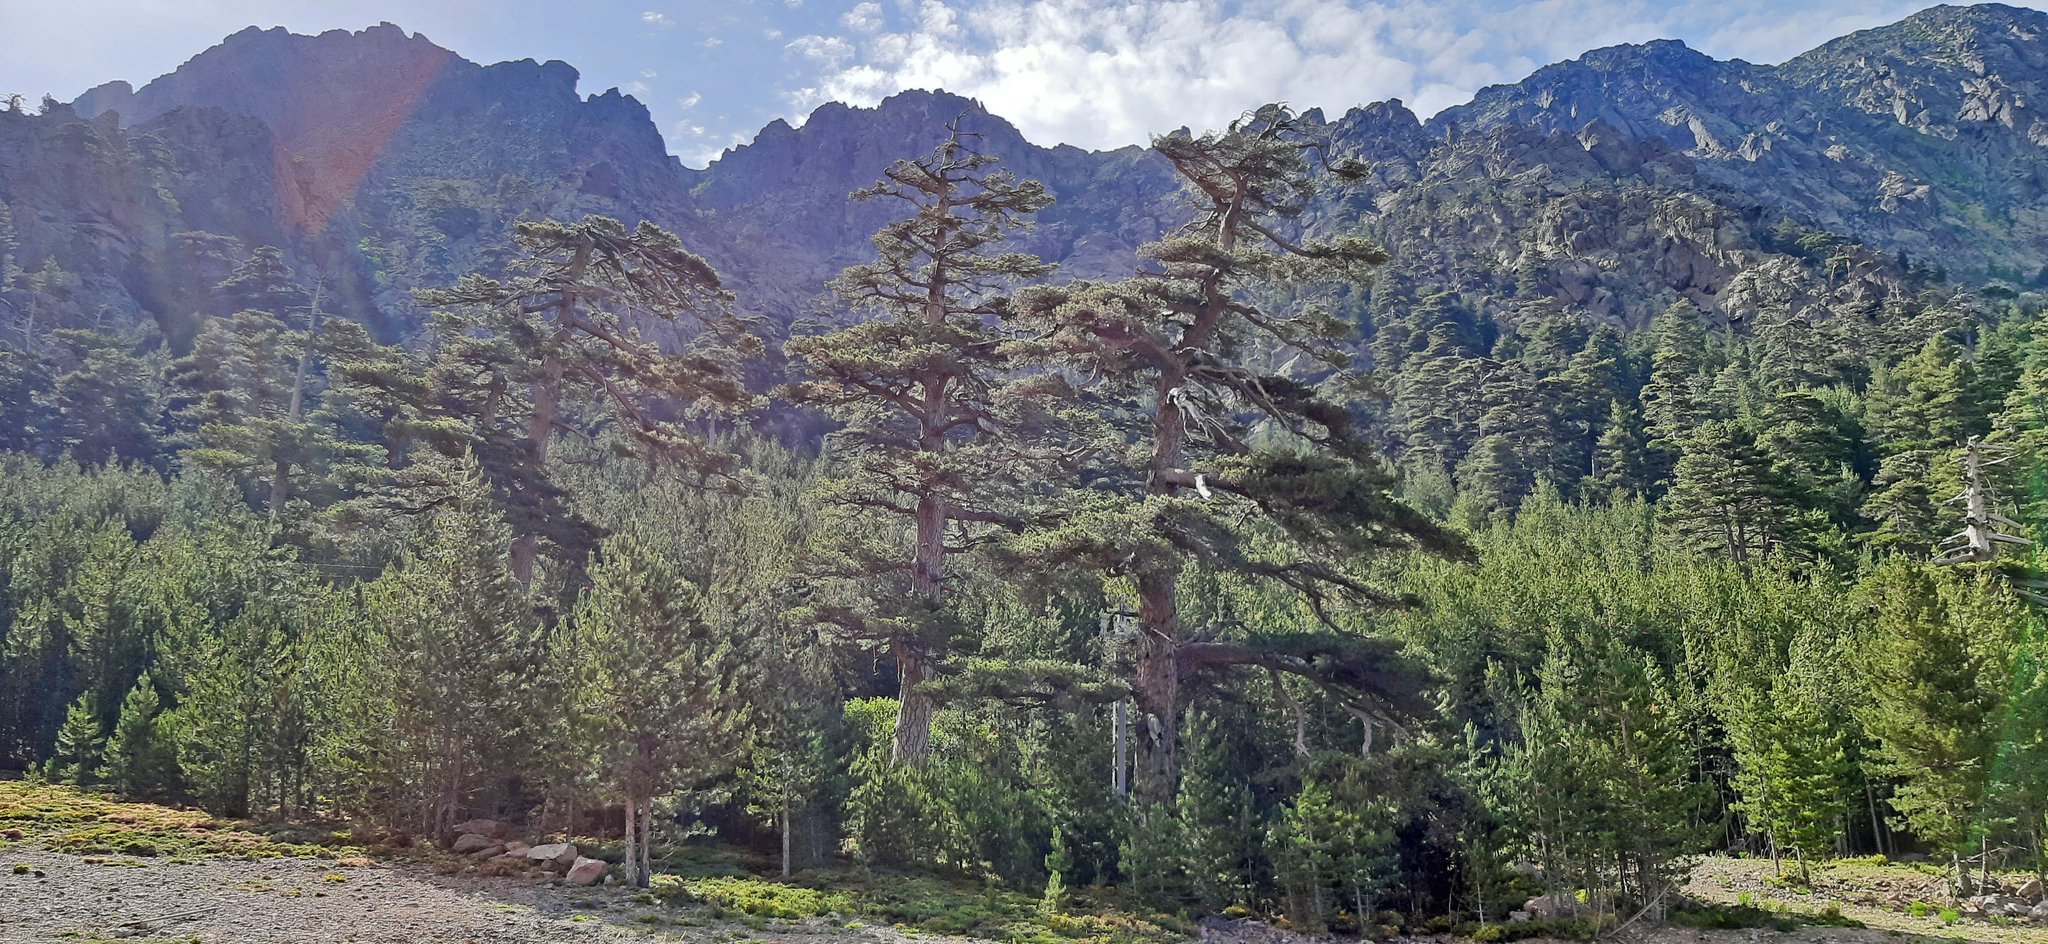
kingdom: Plantae
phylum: Tracheophyta
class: Pinopsida
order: Pinales
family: Pinaceae
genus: Pinus
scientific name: Pinus nigra
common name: Austrian pine
